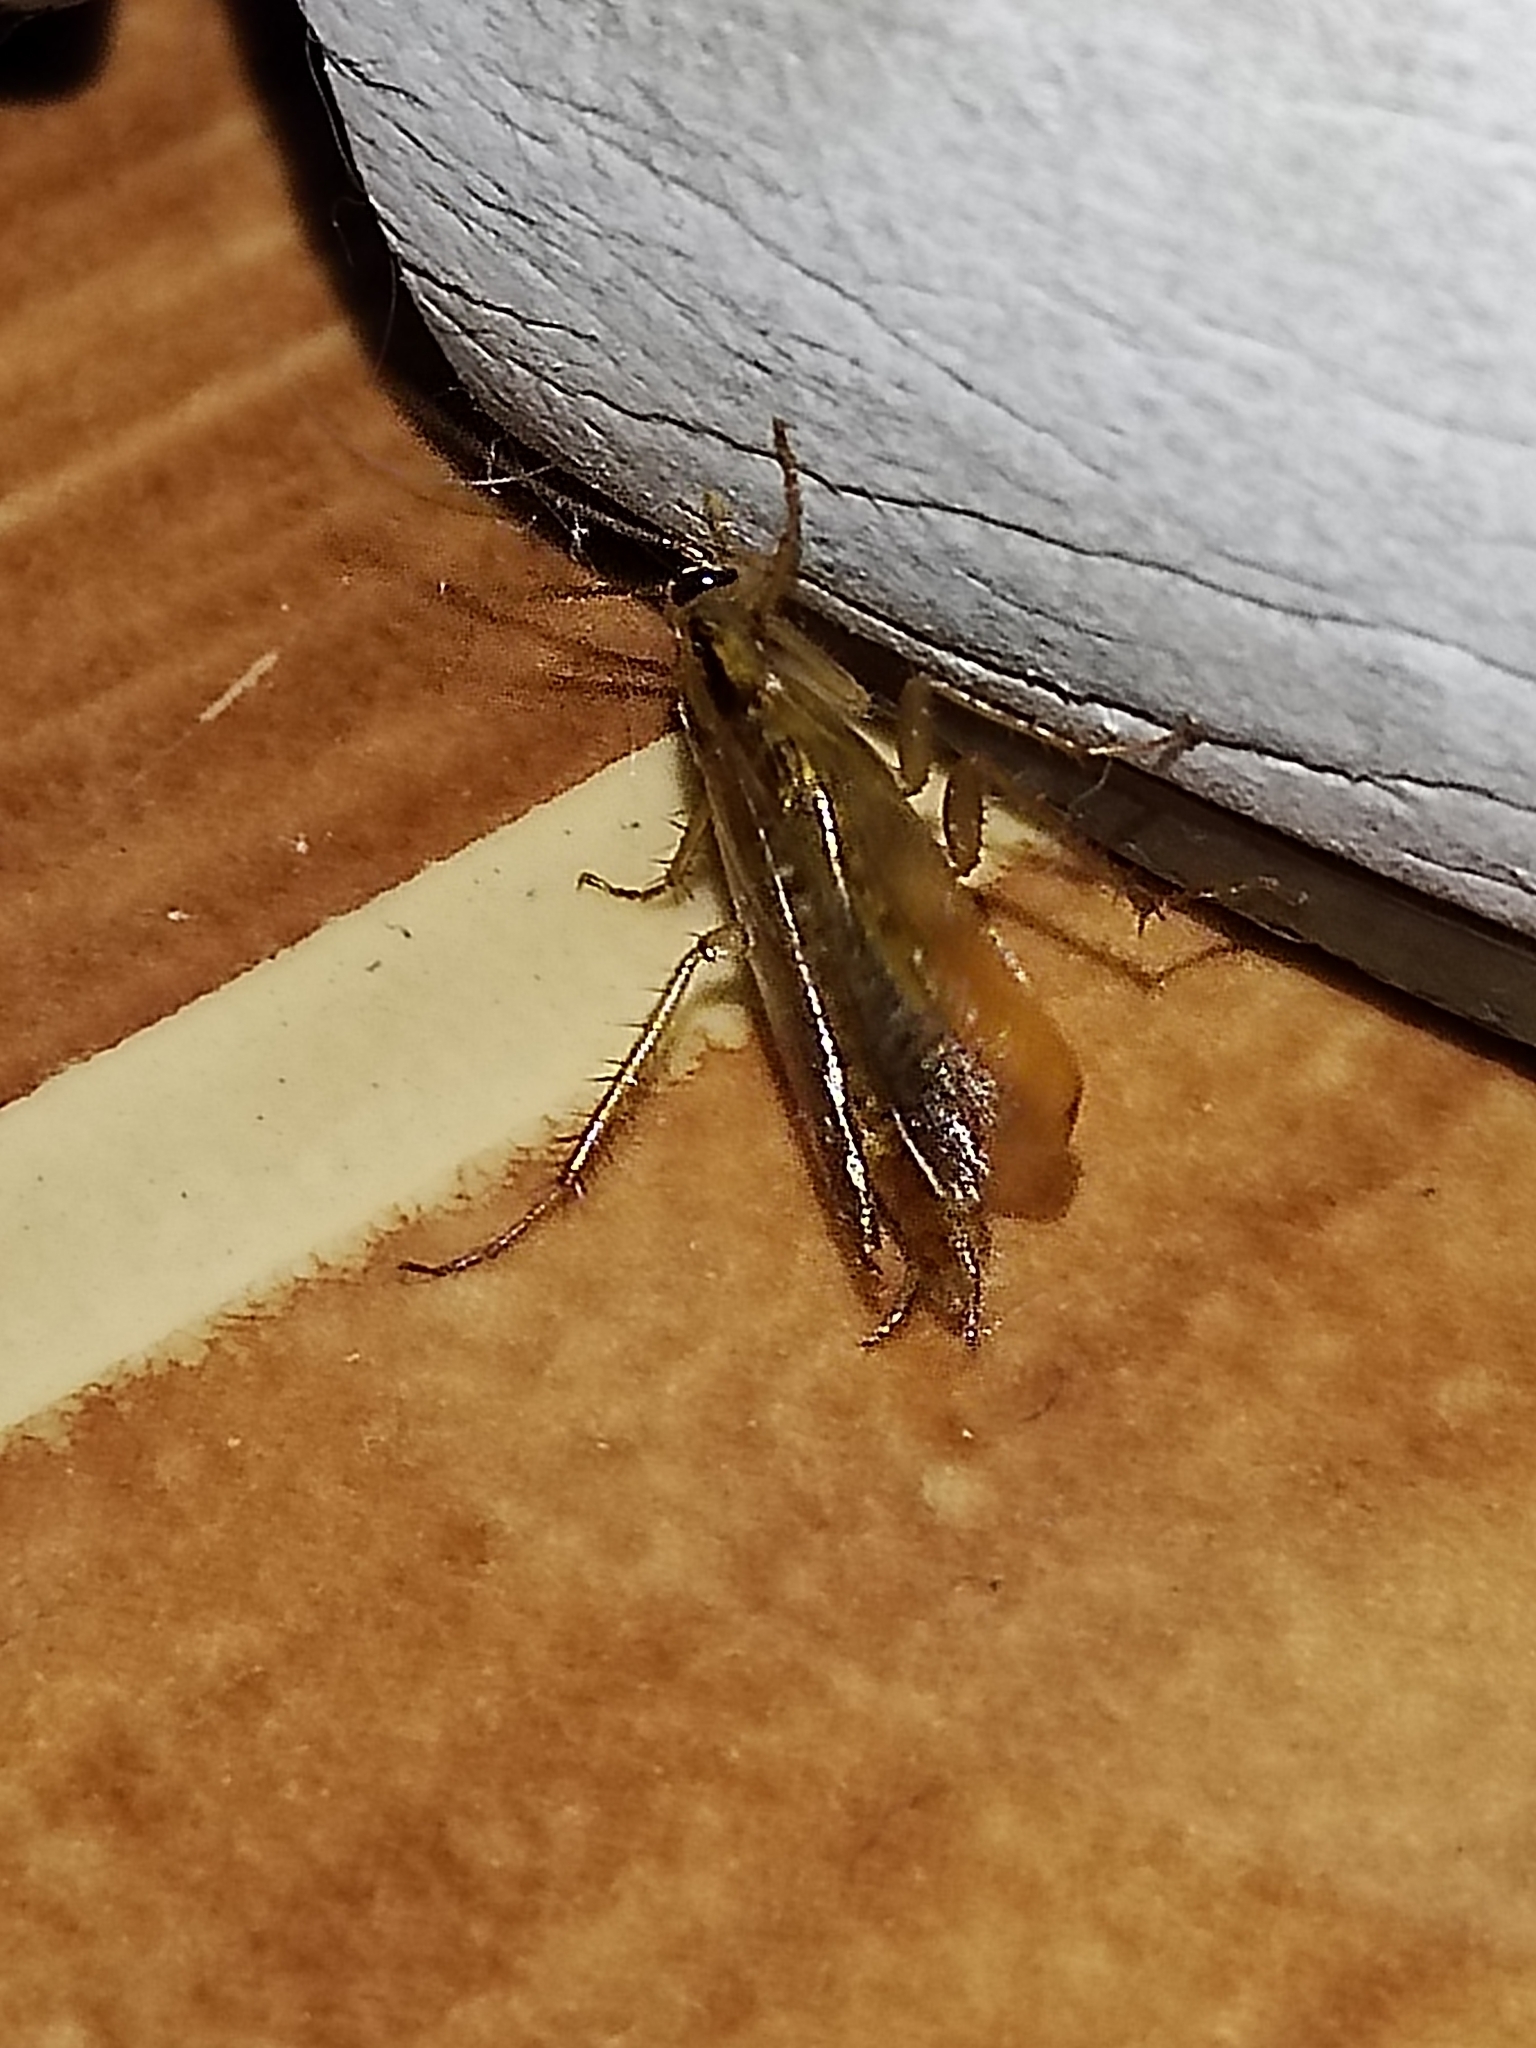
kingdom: Animalia
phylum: Arthropoda
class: Insecta
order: Blattodea
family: Ectobiidae
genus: Blattella
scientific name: Blattella germanica
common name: German cockroach
